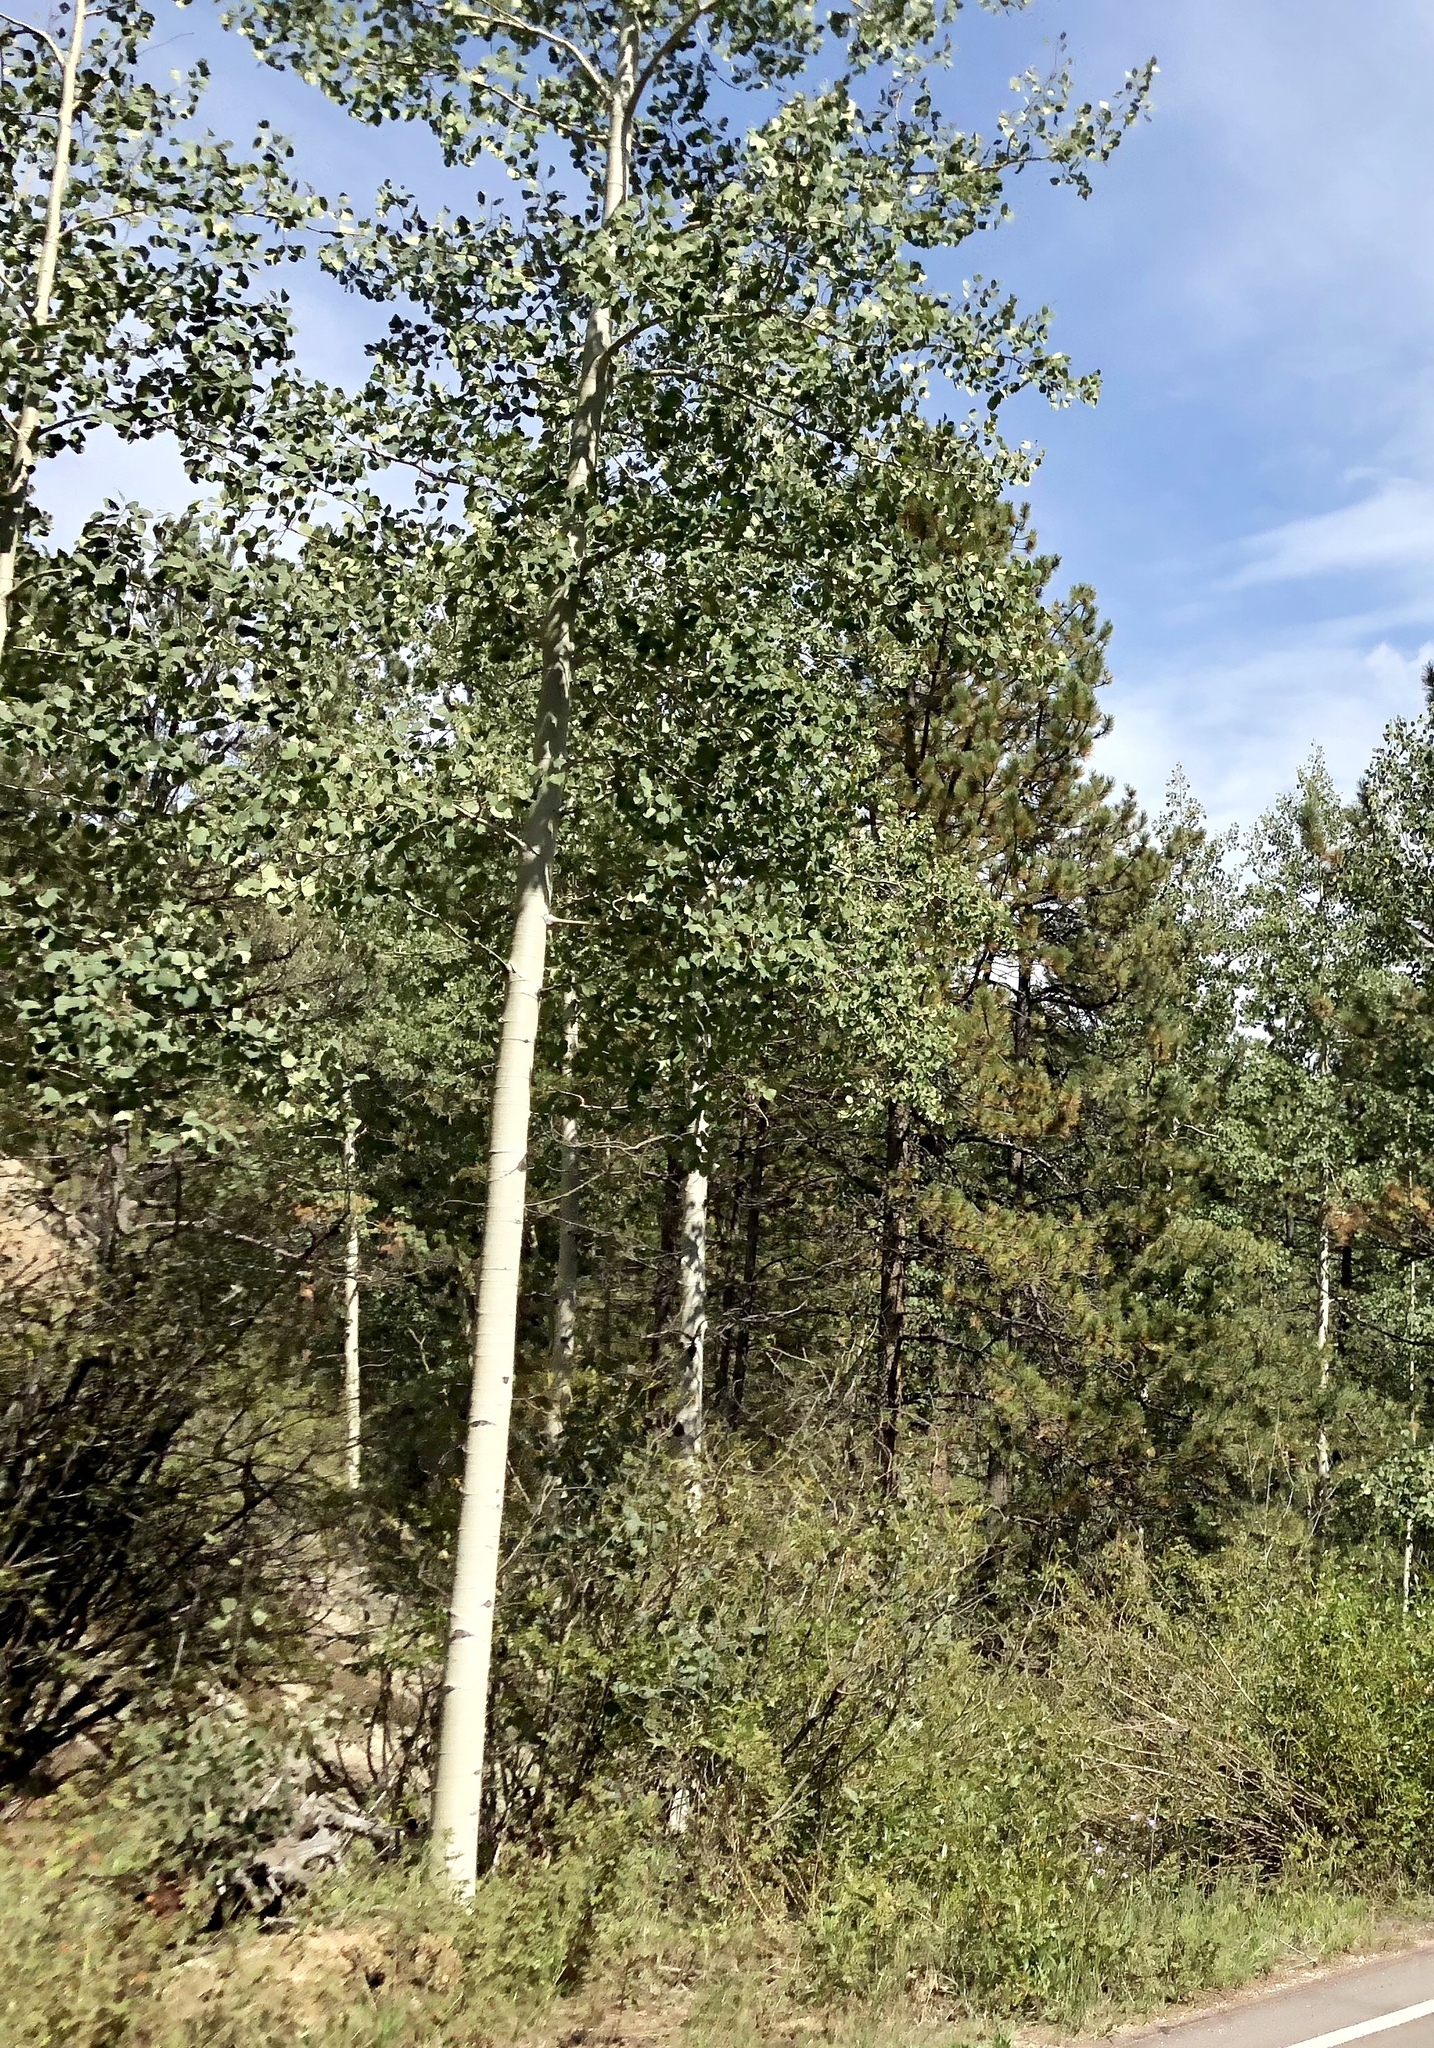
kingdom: Plantae
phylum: Tracheophyta
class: Magnoliopsida
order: Malpighiales
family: Salicaceae
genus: Populus
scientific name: Populus tremuloides
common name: Quaking aspen
